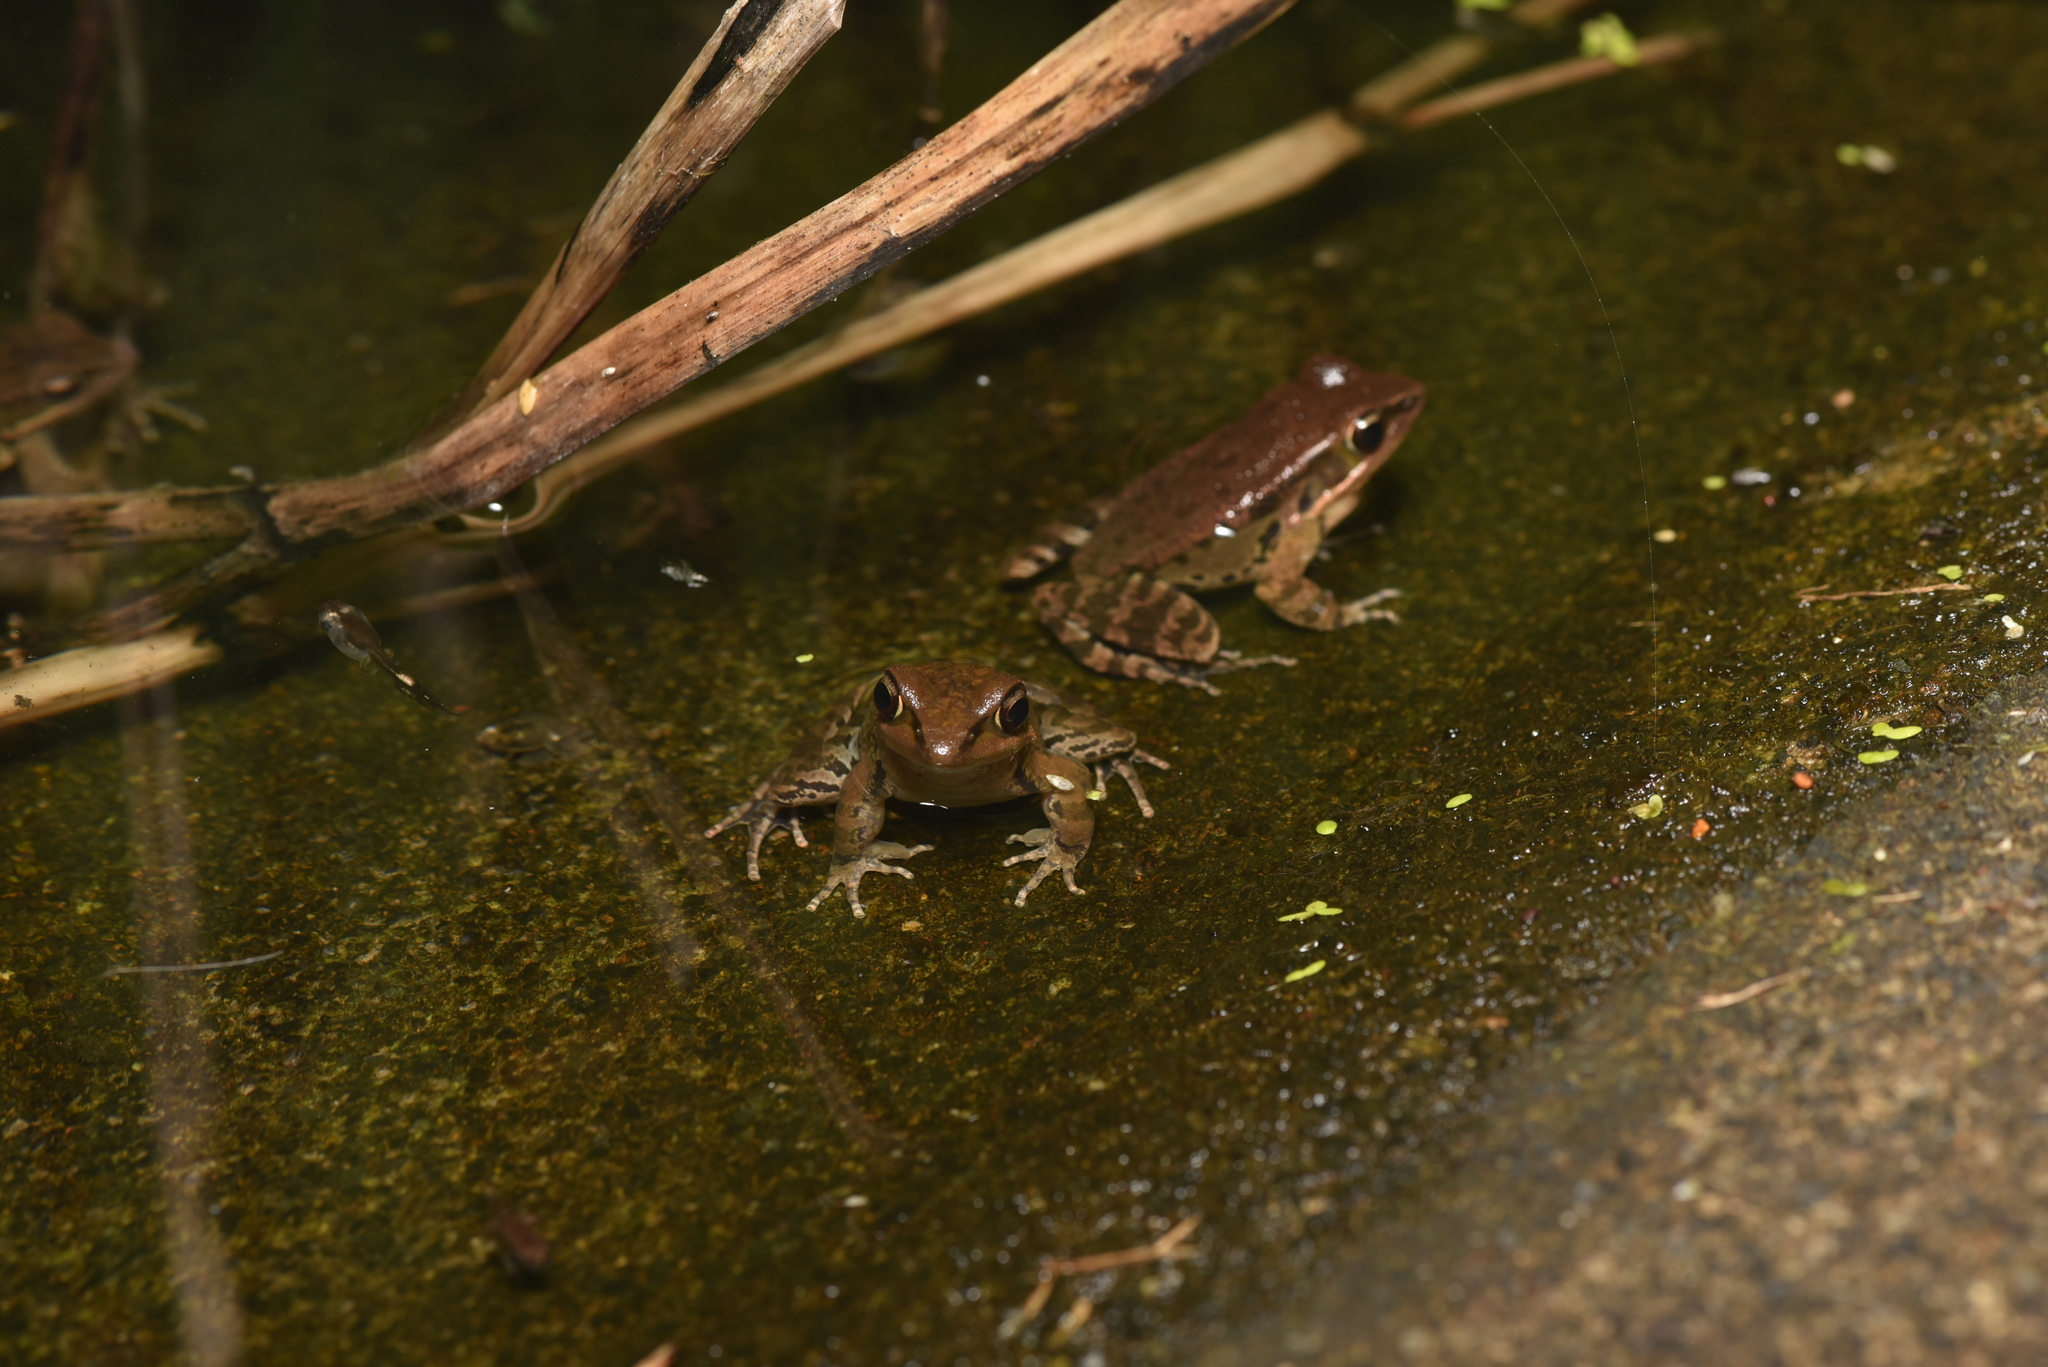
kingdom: Animalia
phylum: Chordata
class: Amphibia
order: Anura
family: Ranidae
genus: Hylarana
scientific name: Hylarana latouchii
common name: Broad-folded frog
